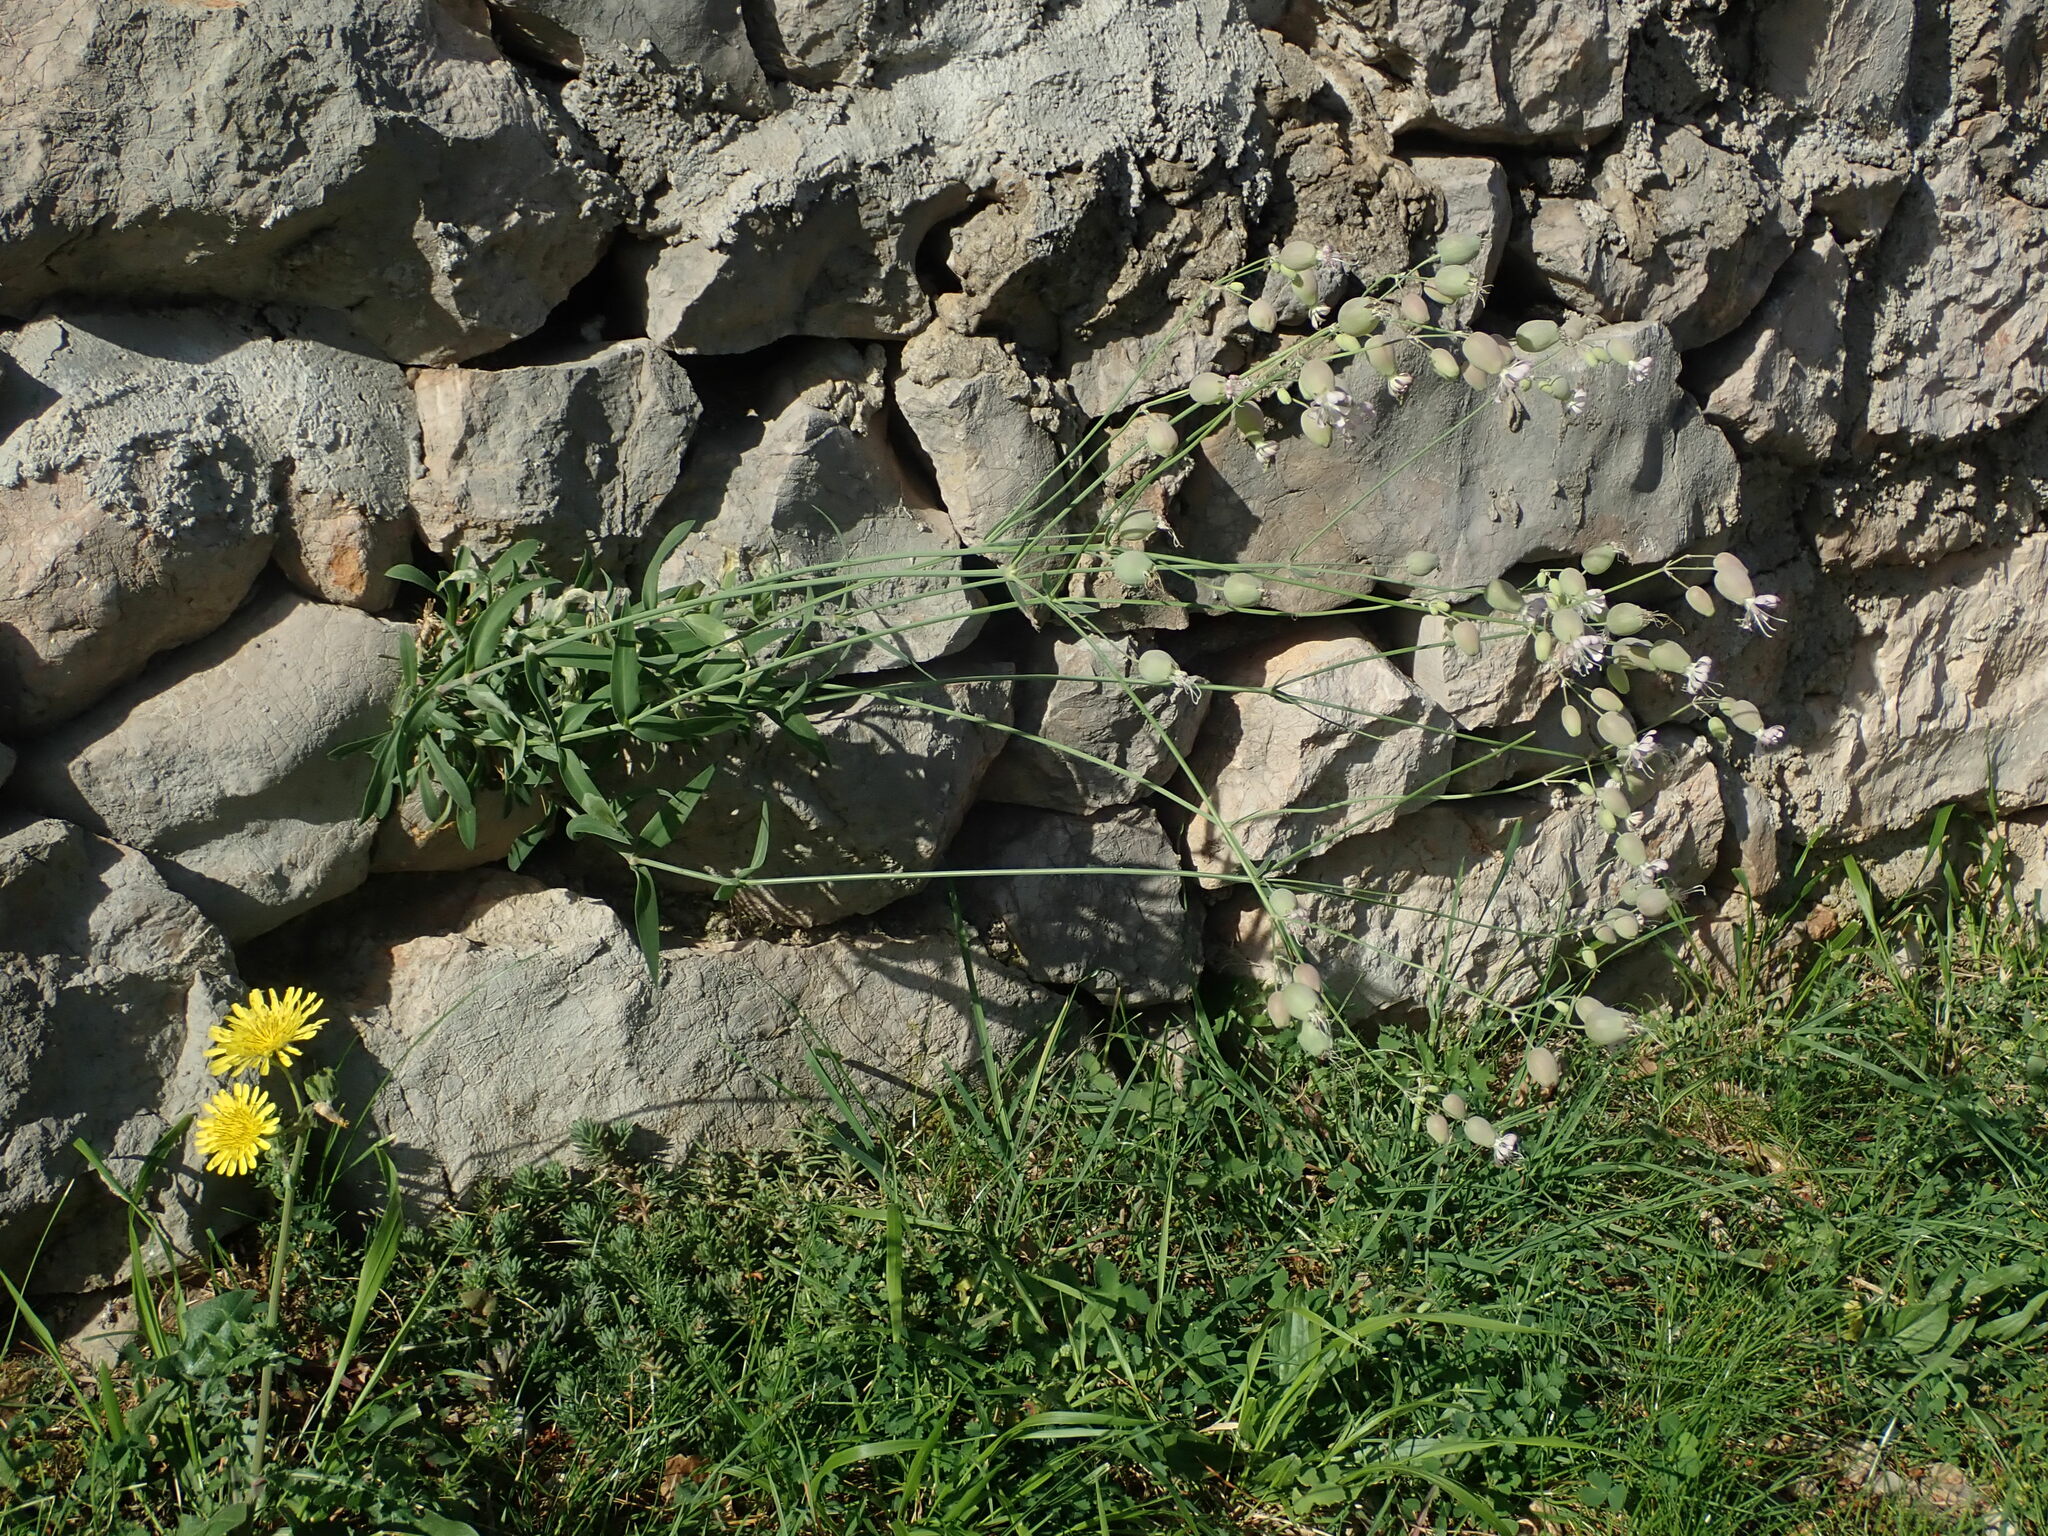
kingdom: Plantae
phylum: Tracheophyta
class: Magnoliopsida
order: Caryophyllales
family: Caryophyllaceae
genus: Silene
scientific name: Silene vulgaris
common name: Bladder campion
